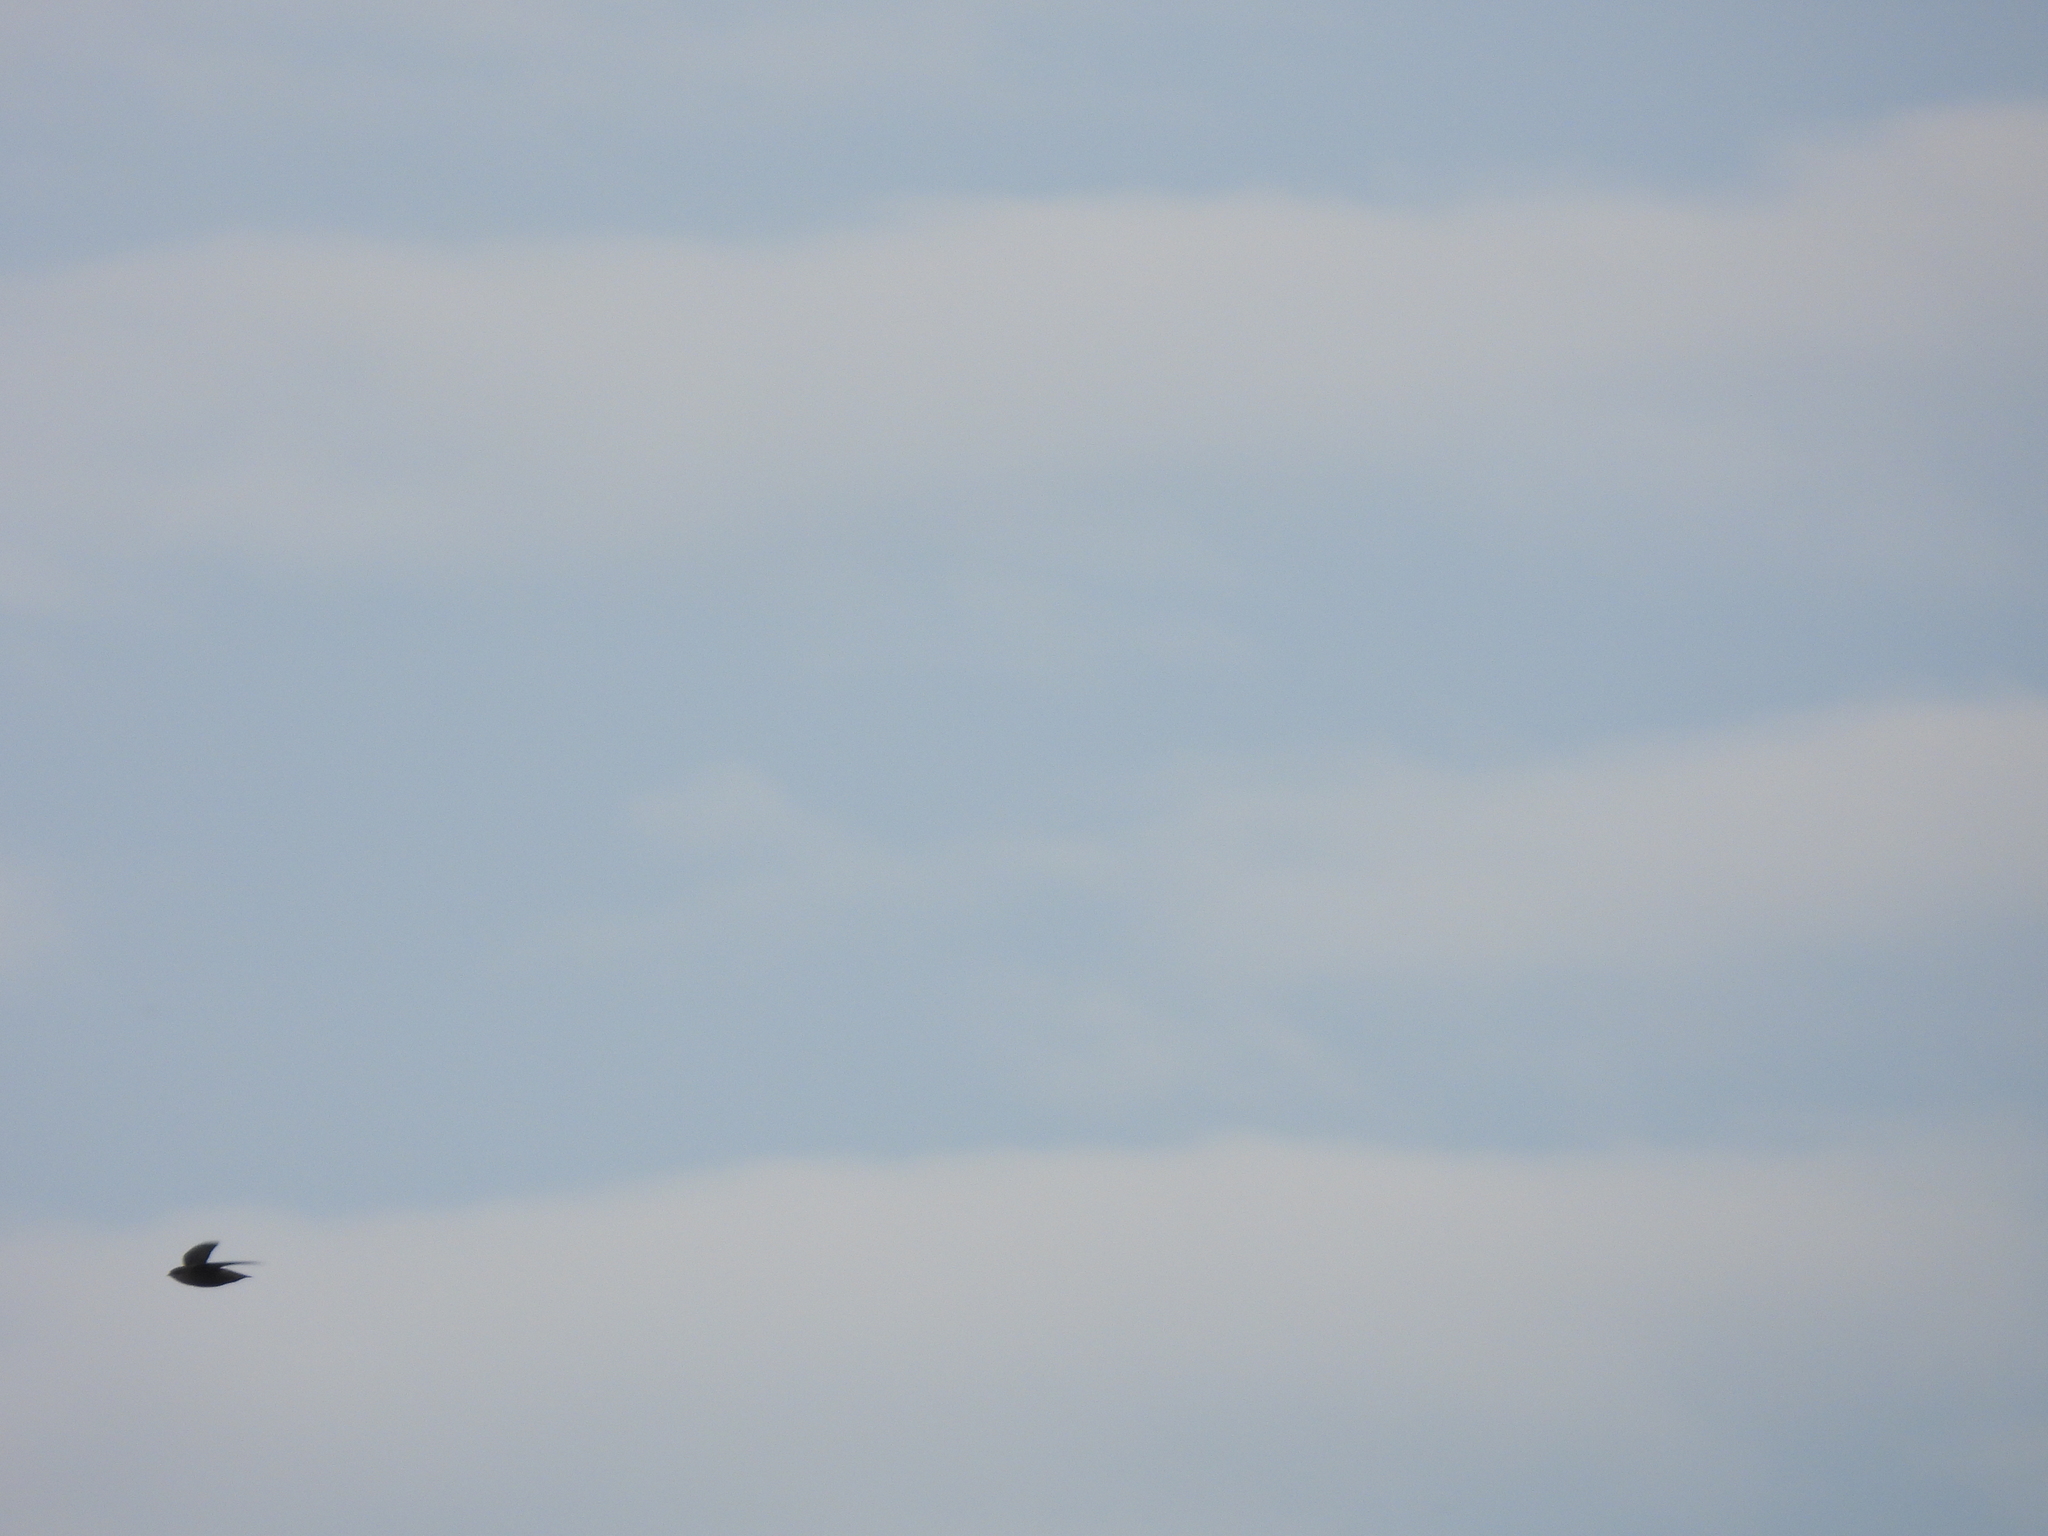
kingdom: Animalia
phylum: Chordata
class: Aves
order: Apodiformes
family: Apodidae
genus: Chaetura
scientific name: Chaetura pelagica
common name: Chimney swift
